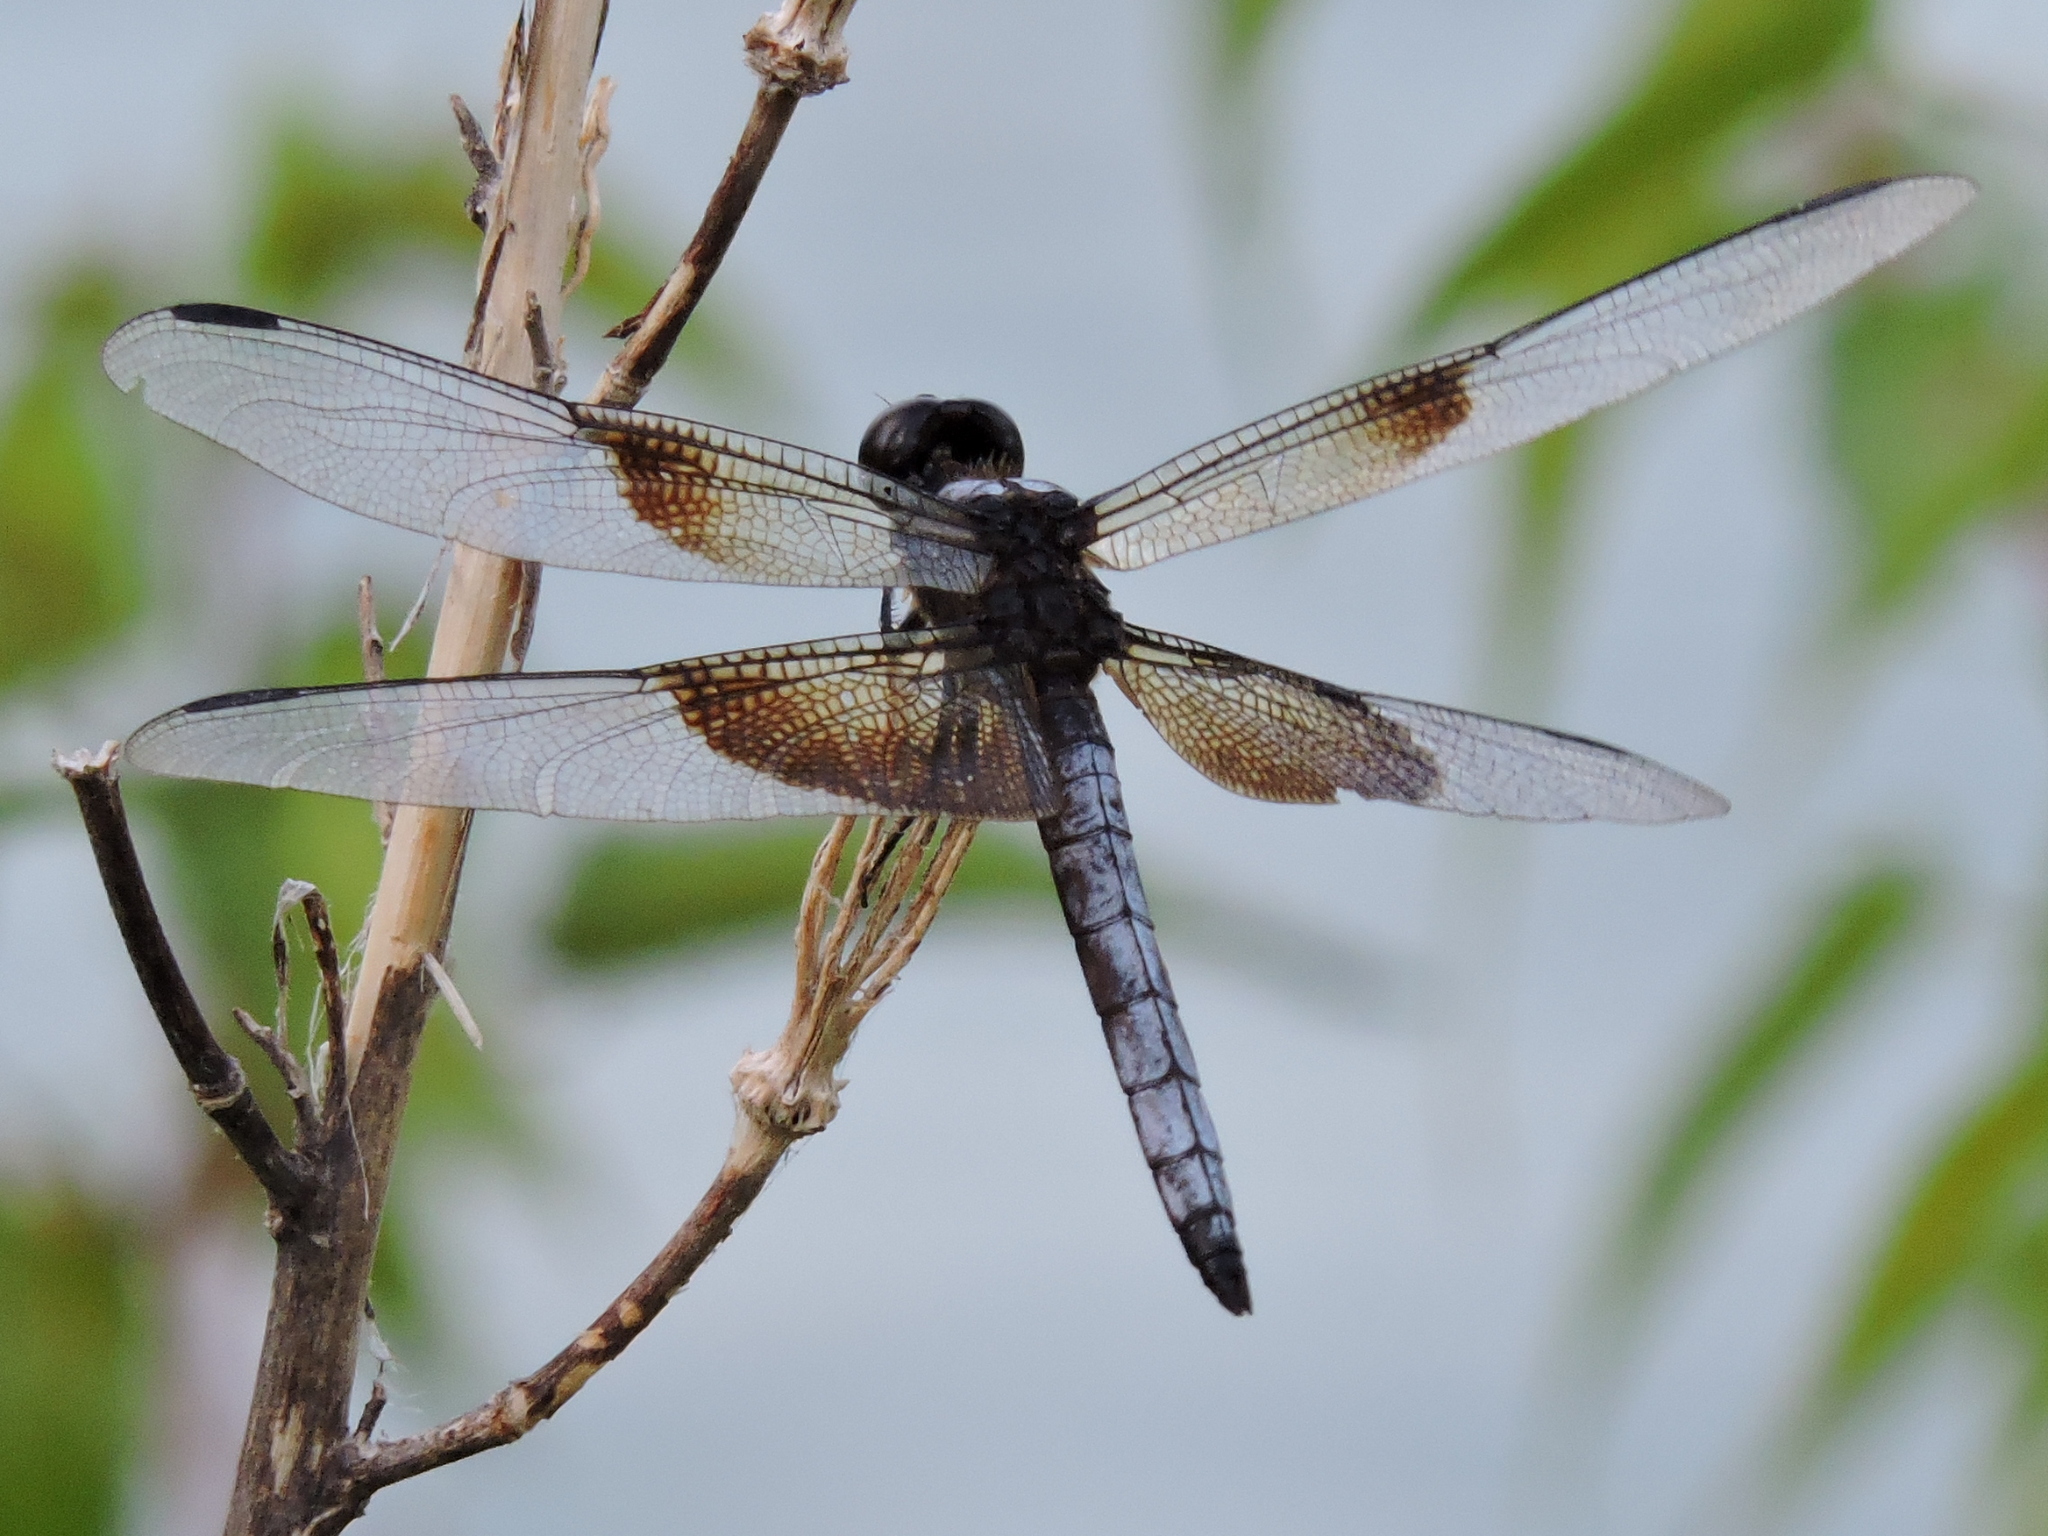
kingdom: Animalia
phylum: Arthropoda
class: Insecta
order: Odonata
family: Libellulidae
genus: Libellula
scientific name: Libellula luctuosa
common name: Widow skimmer
